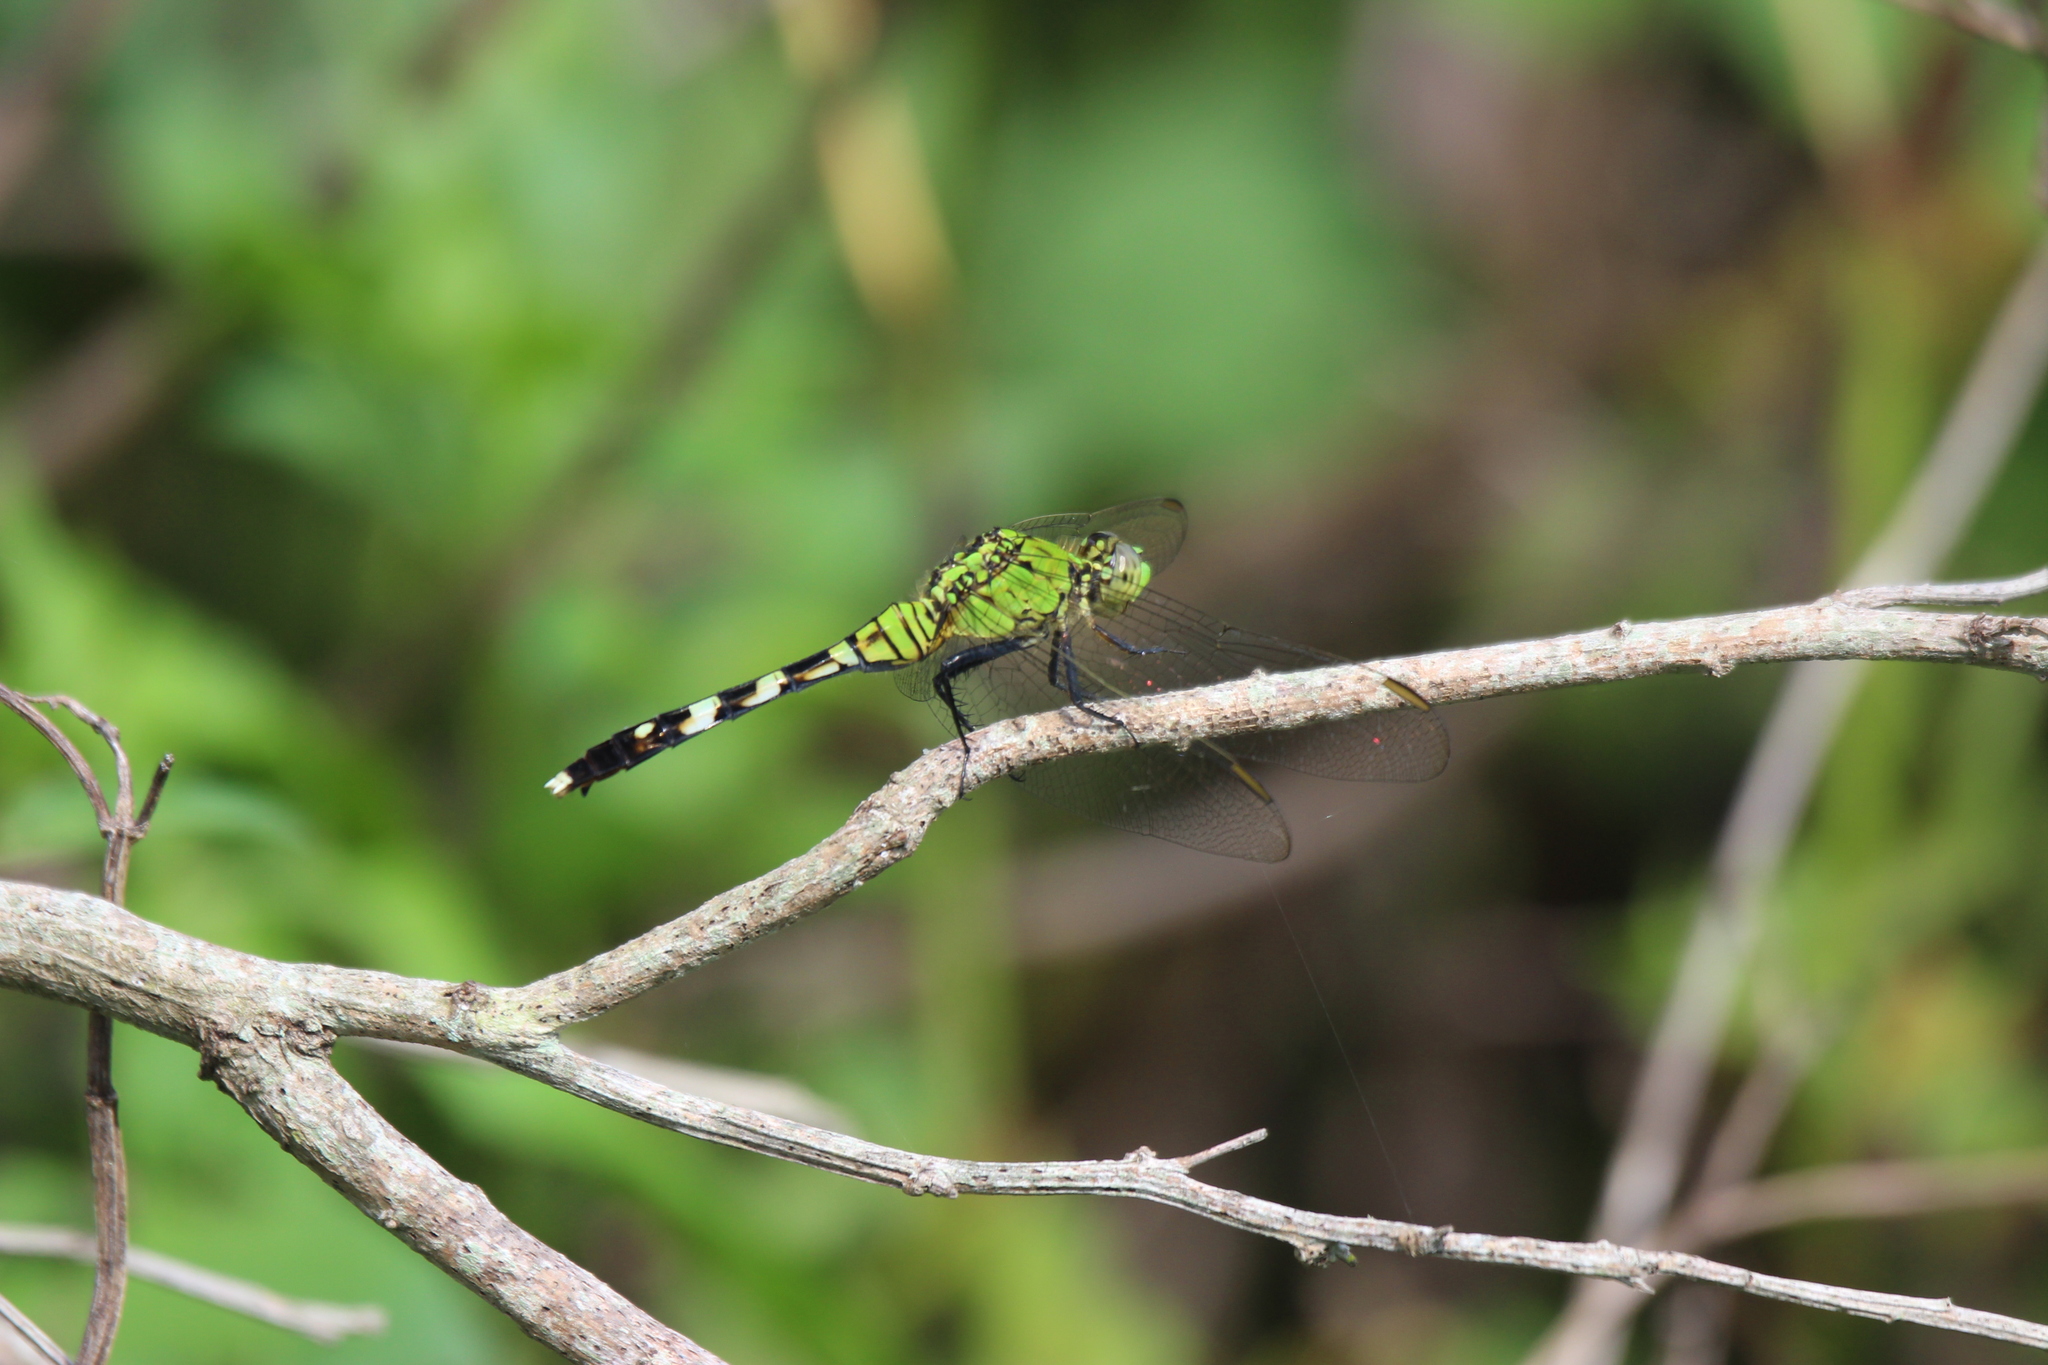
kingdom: Animalia
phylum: Arthropoda
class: Insecta
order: Odonata
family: Libellulidae
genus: Erythemis
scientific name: Erythemis simplicicollis
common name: Eastern pondhawk
